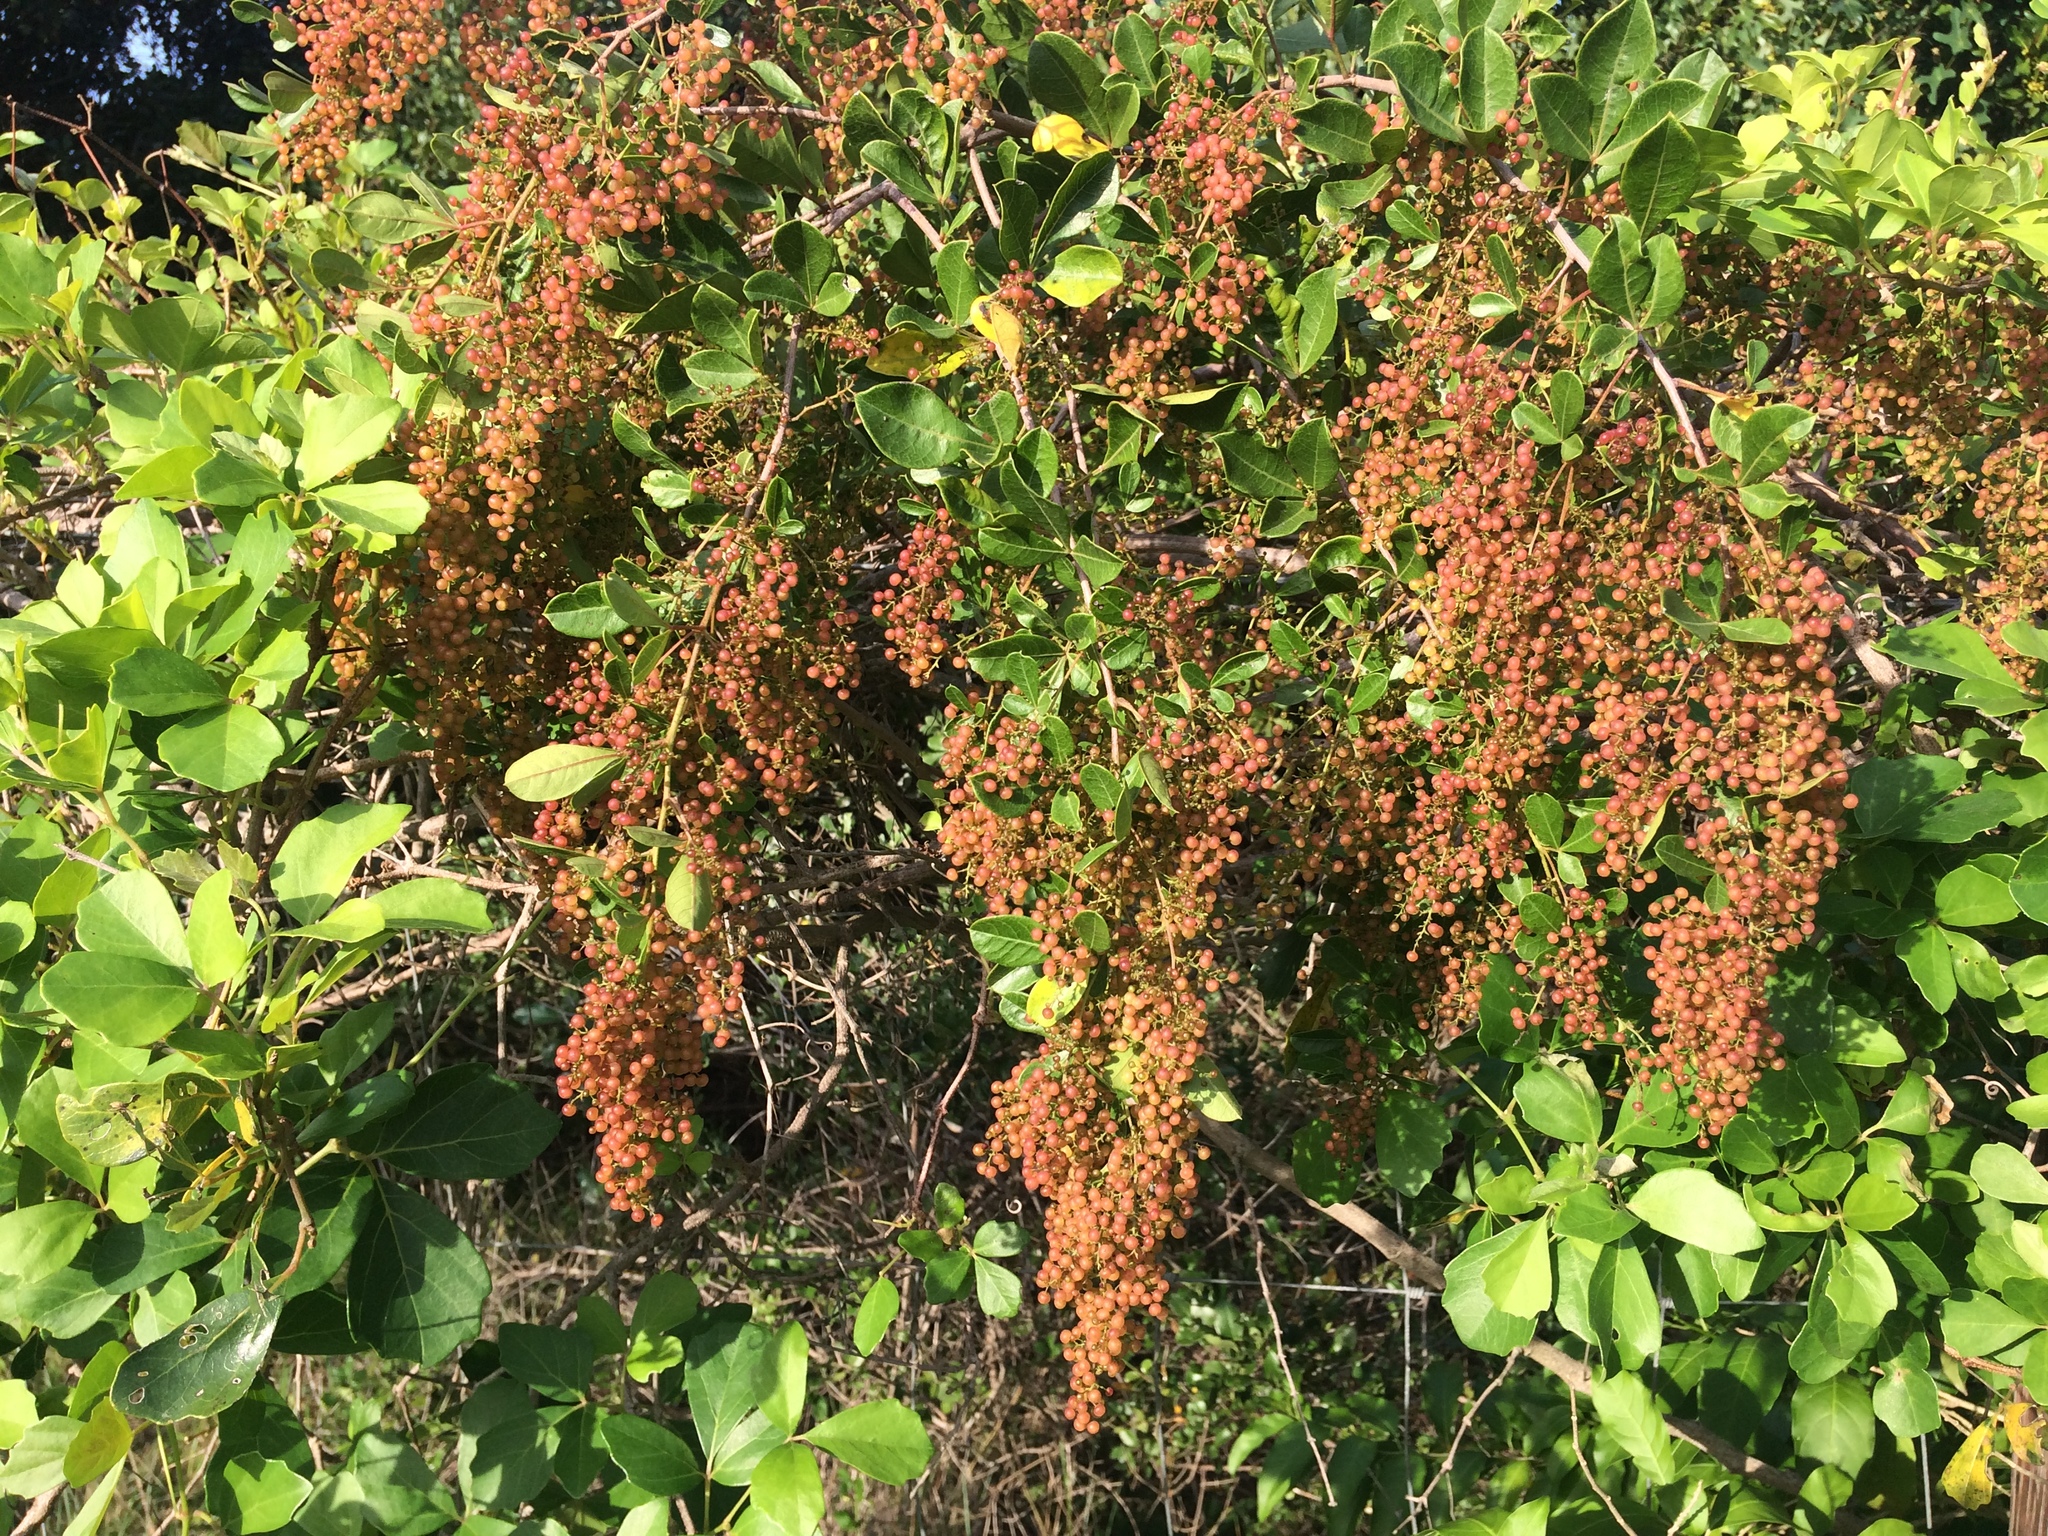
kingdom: Plantae
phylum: Tracheophyta
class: Magnoliopsida
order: Sapindales
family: Anacardiaceae
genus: Searsia
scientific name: Searsia nebulosa
